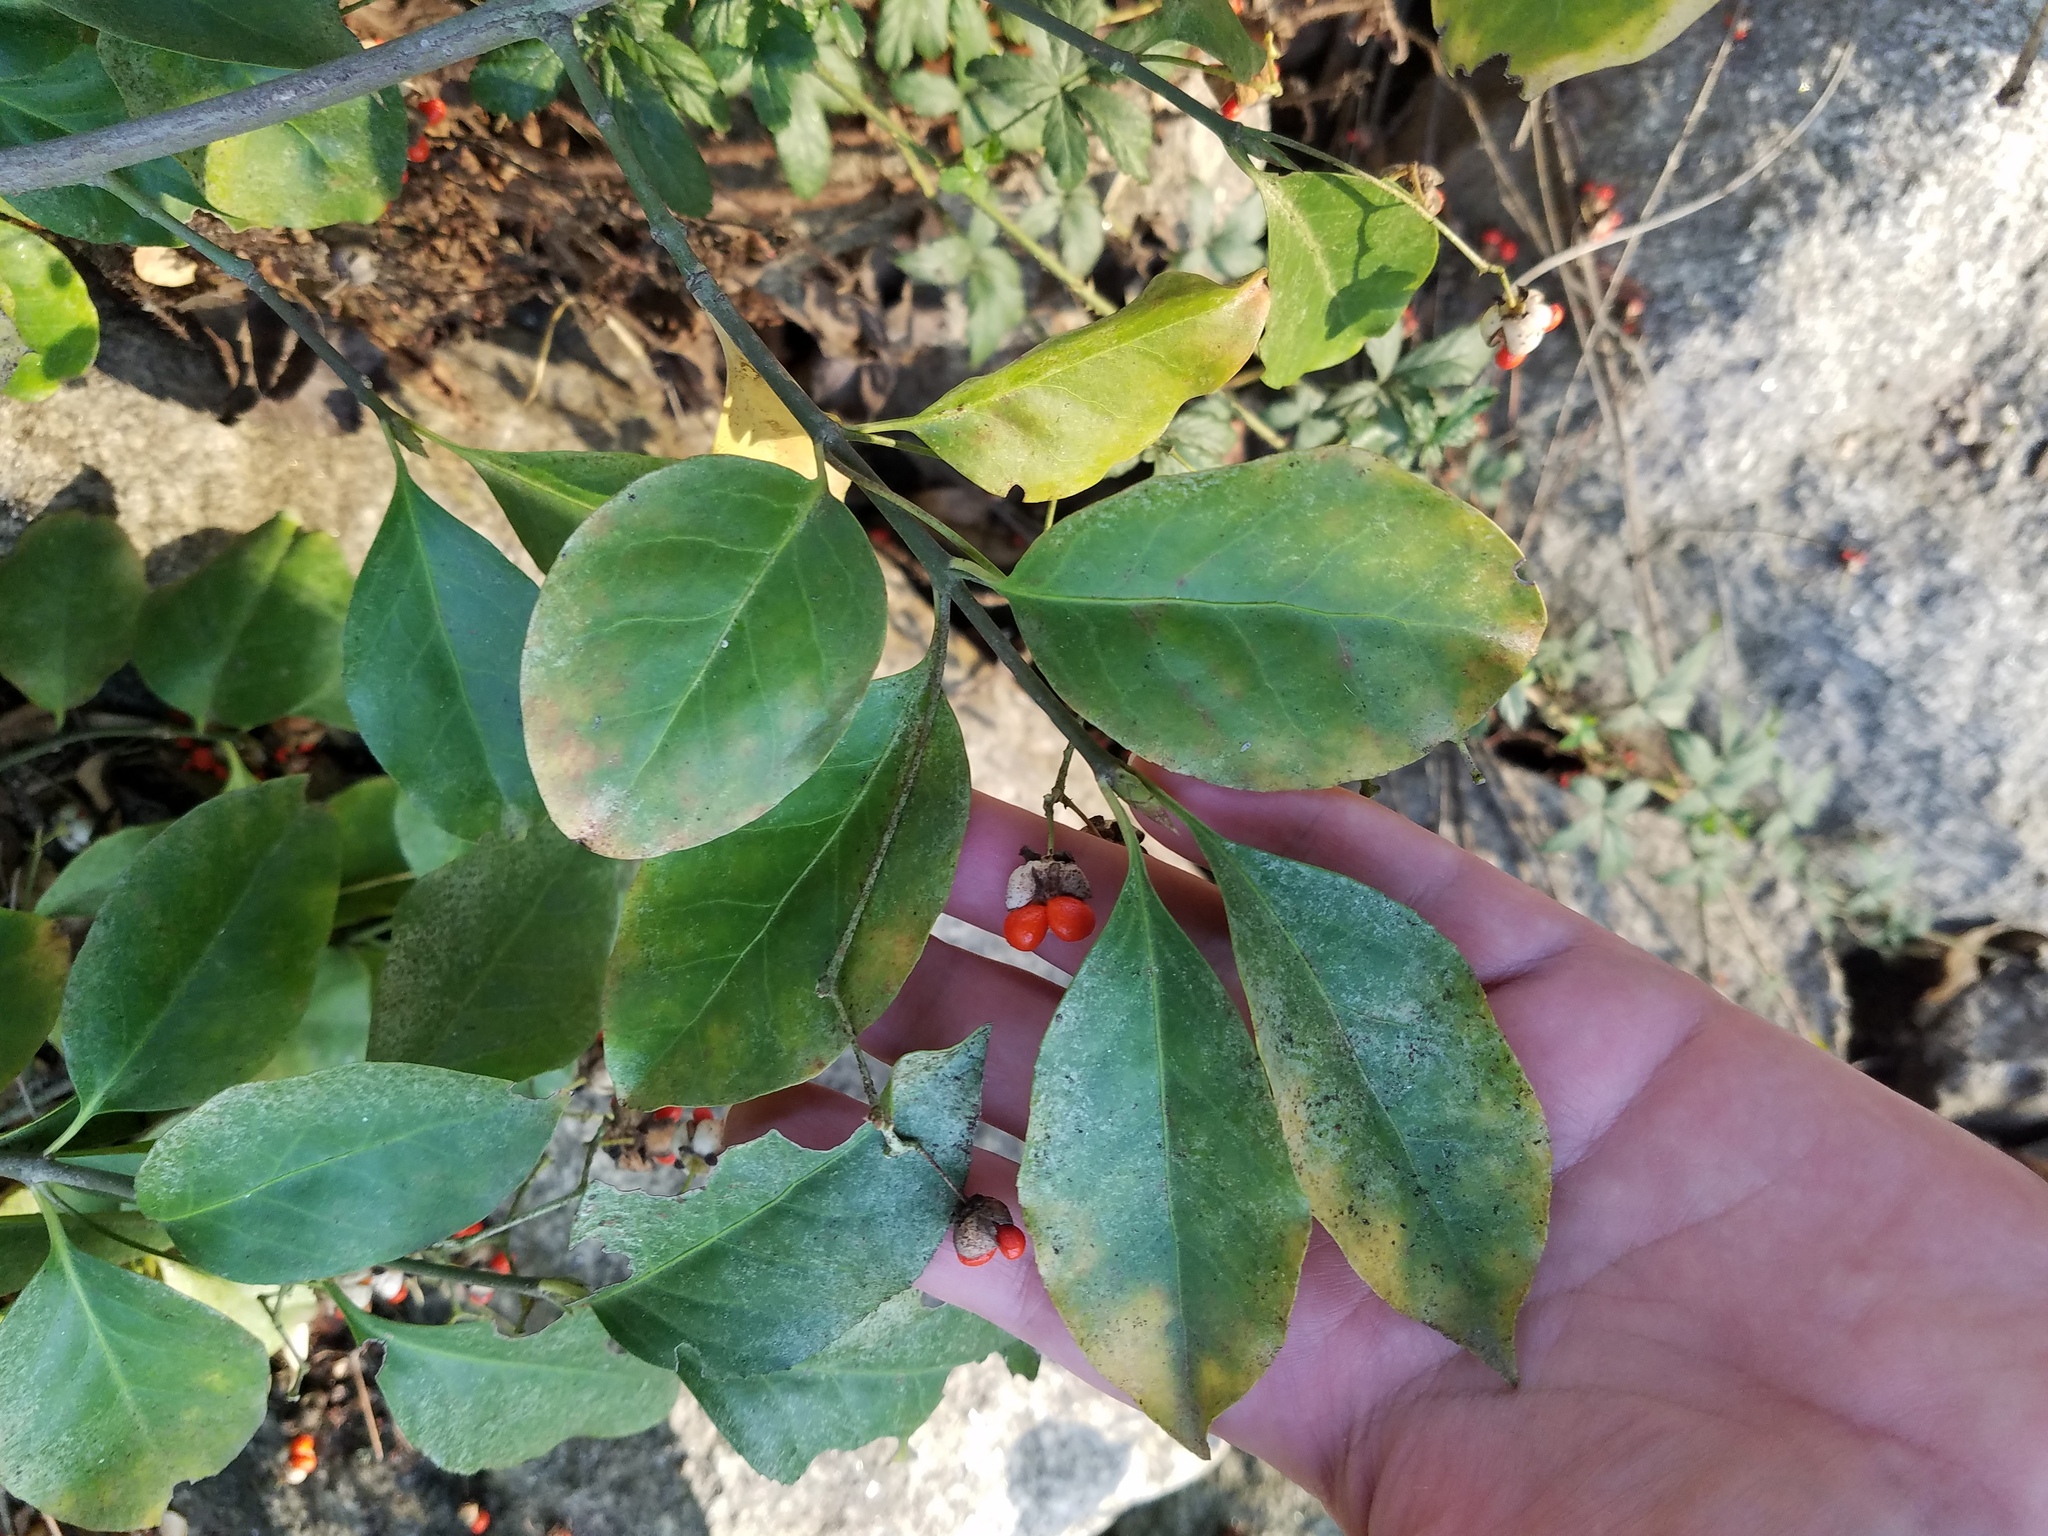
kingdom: Plantae
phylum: Tracheophyta
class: Magnoliopsida
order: Celastrales
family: Celastraceae
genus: Euonymus
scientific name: Euonymus fortunei
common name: Climbing euonymus
